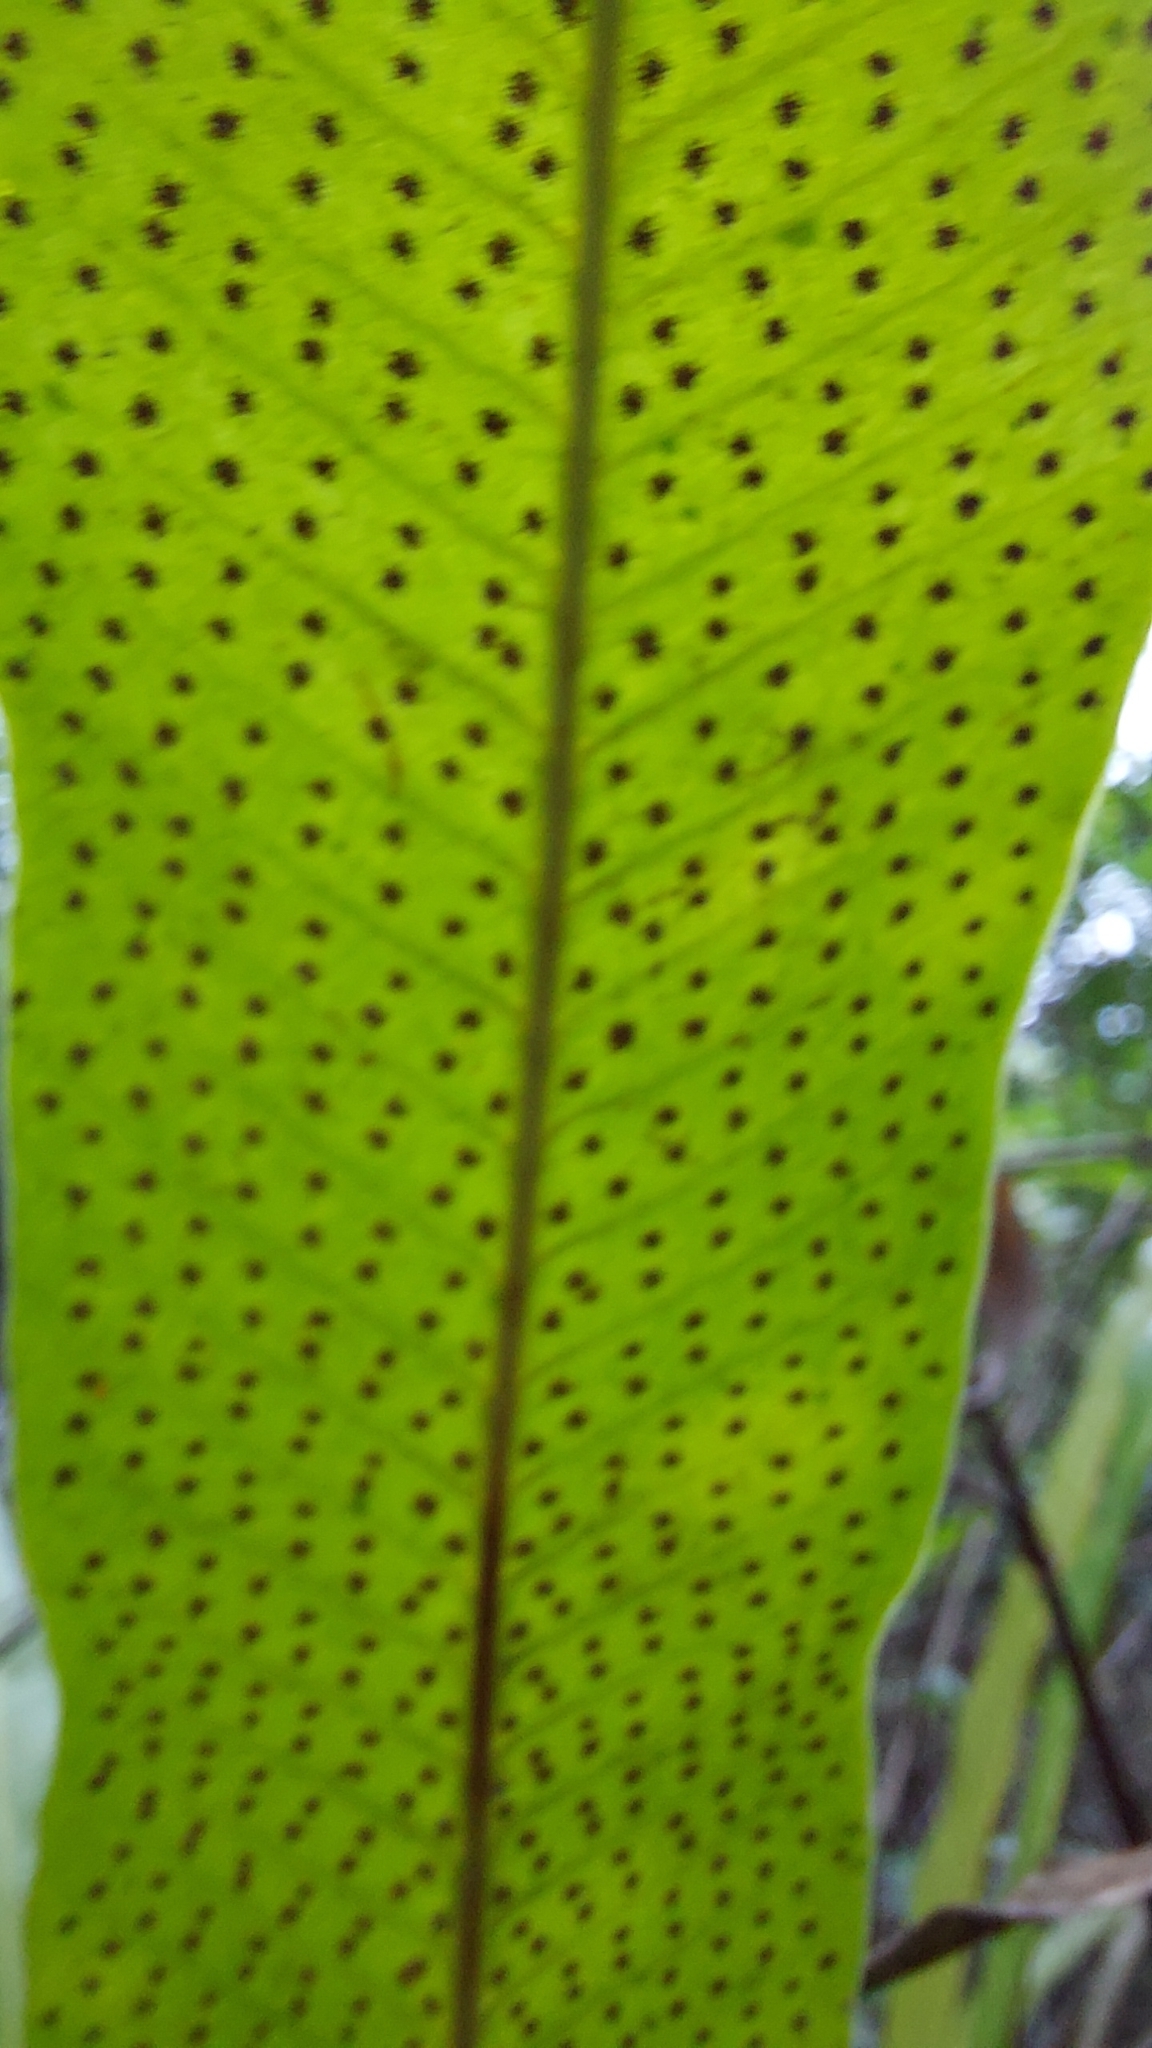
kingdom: Plantae
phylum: Tracheophyta
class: Polypodiopsida
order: Polypodiales
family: Polypodiaceae
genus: Campyloneurum
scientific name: Campyloneurum phyllitidis
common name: Cow-tongue fern
